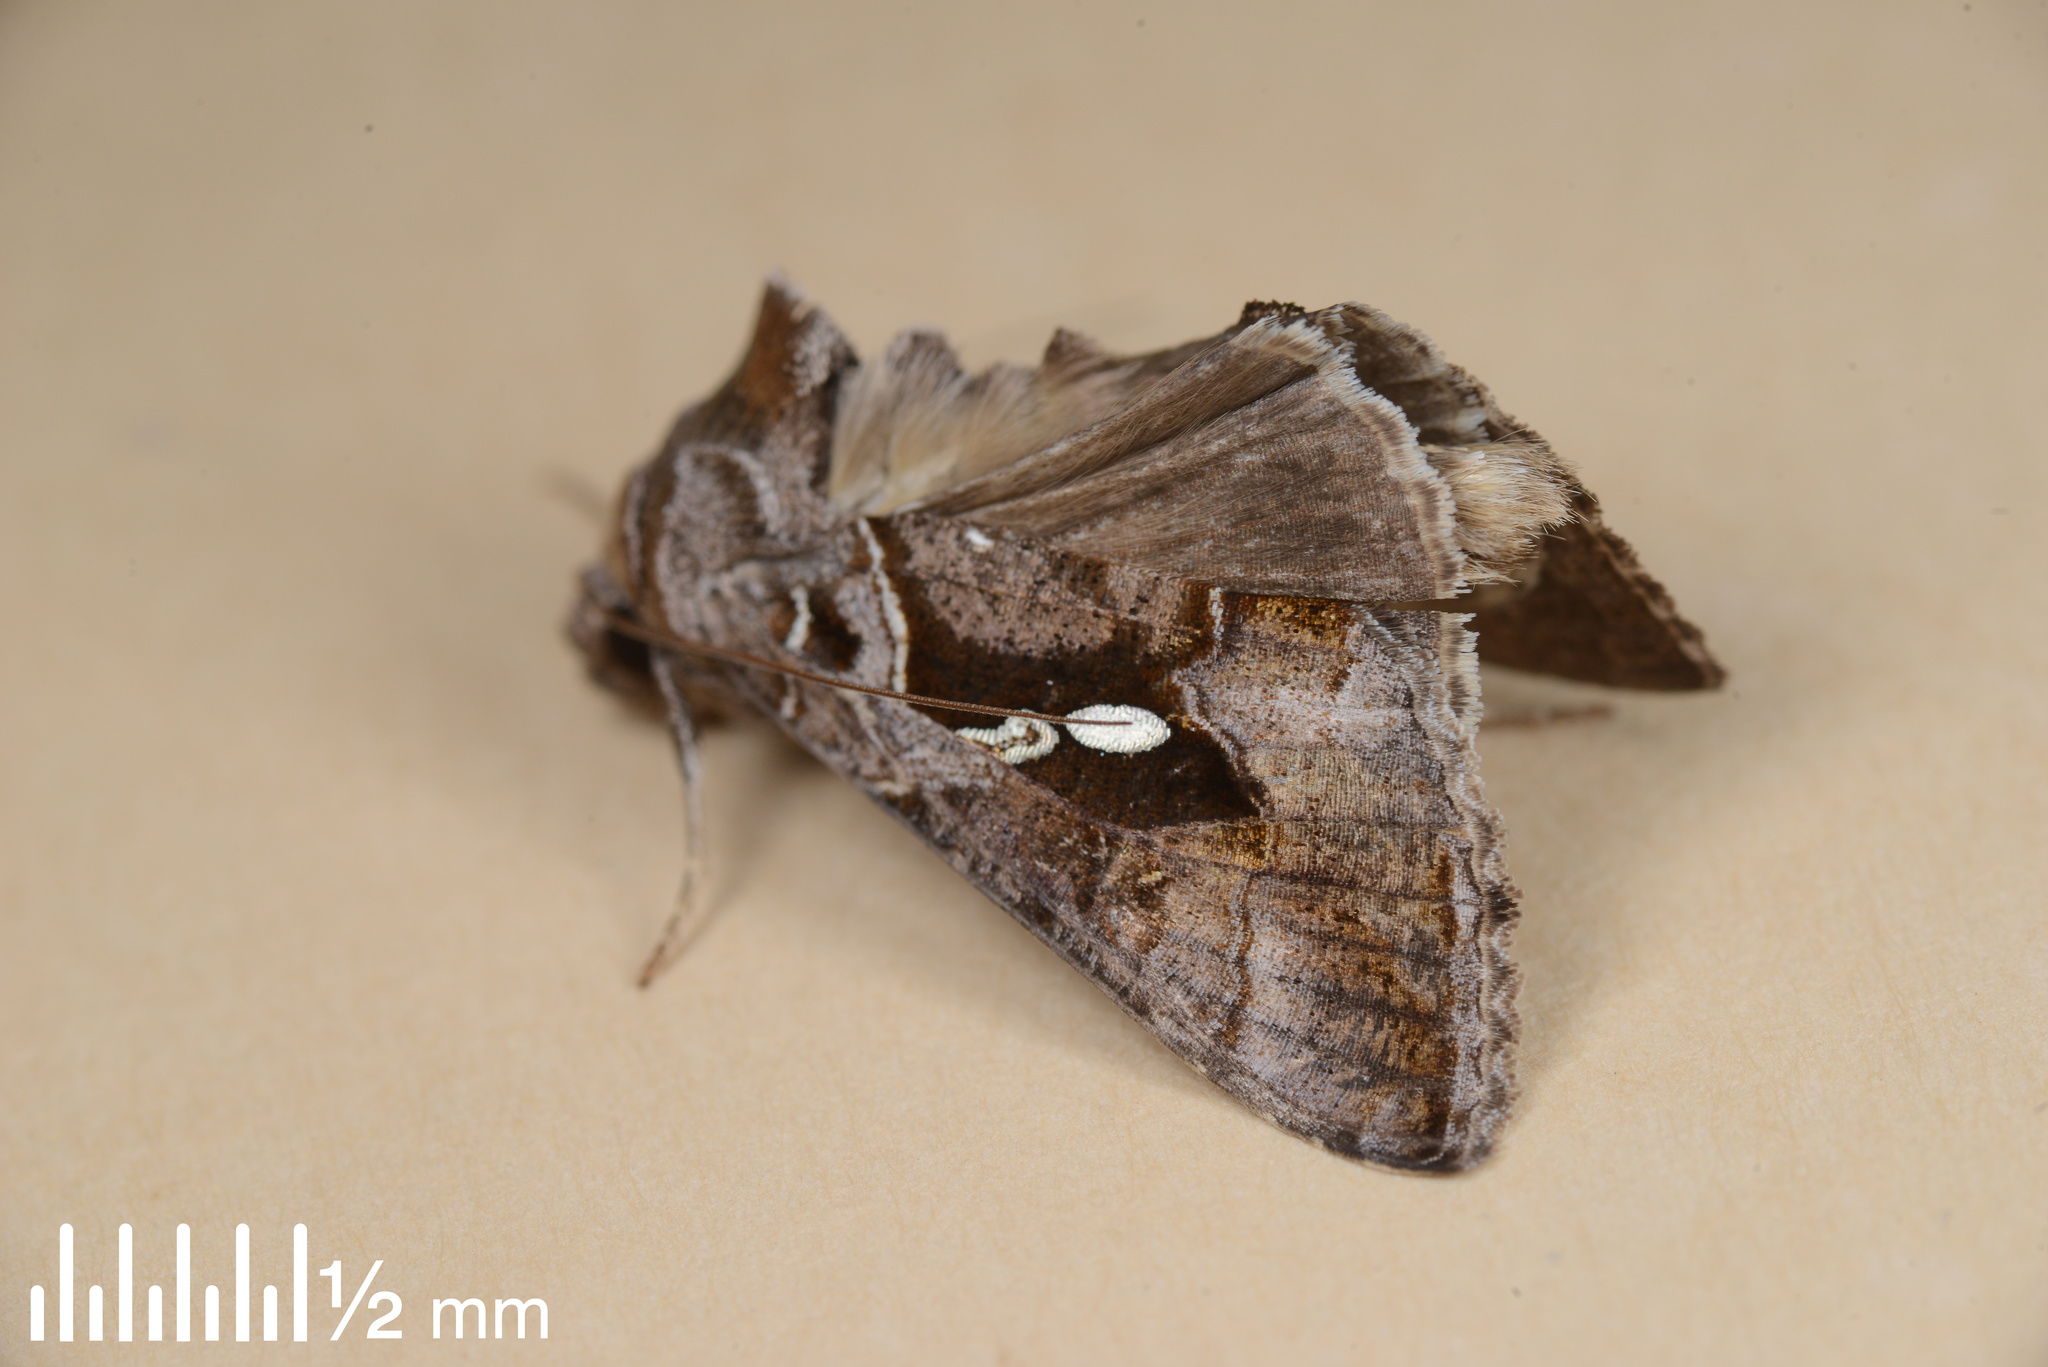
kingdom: Animalia
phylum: Arthropoda
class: Insecta
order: Lepidoptera
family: Noctuidae
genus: Chrysodeixis
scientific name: Chrysodeixis eriosoma
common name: Green garden looper
